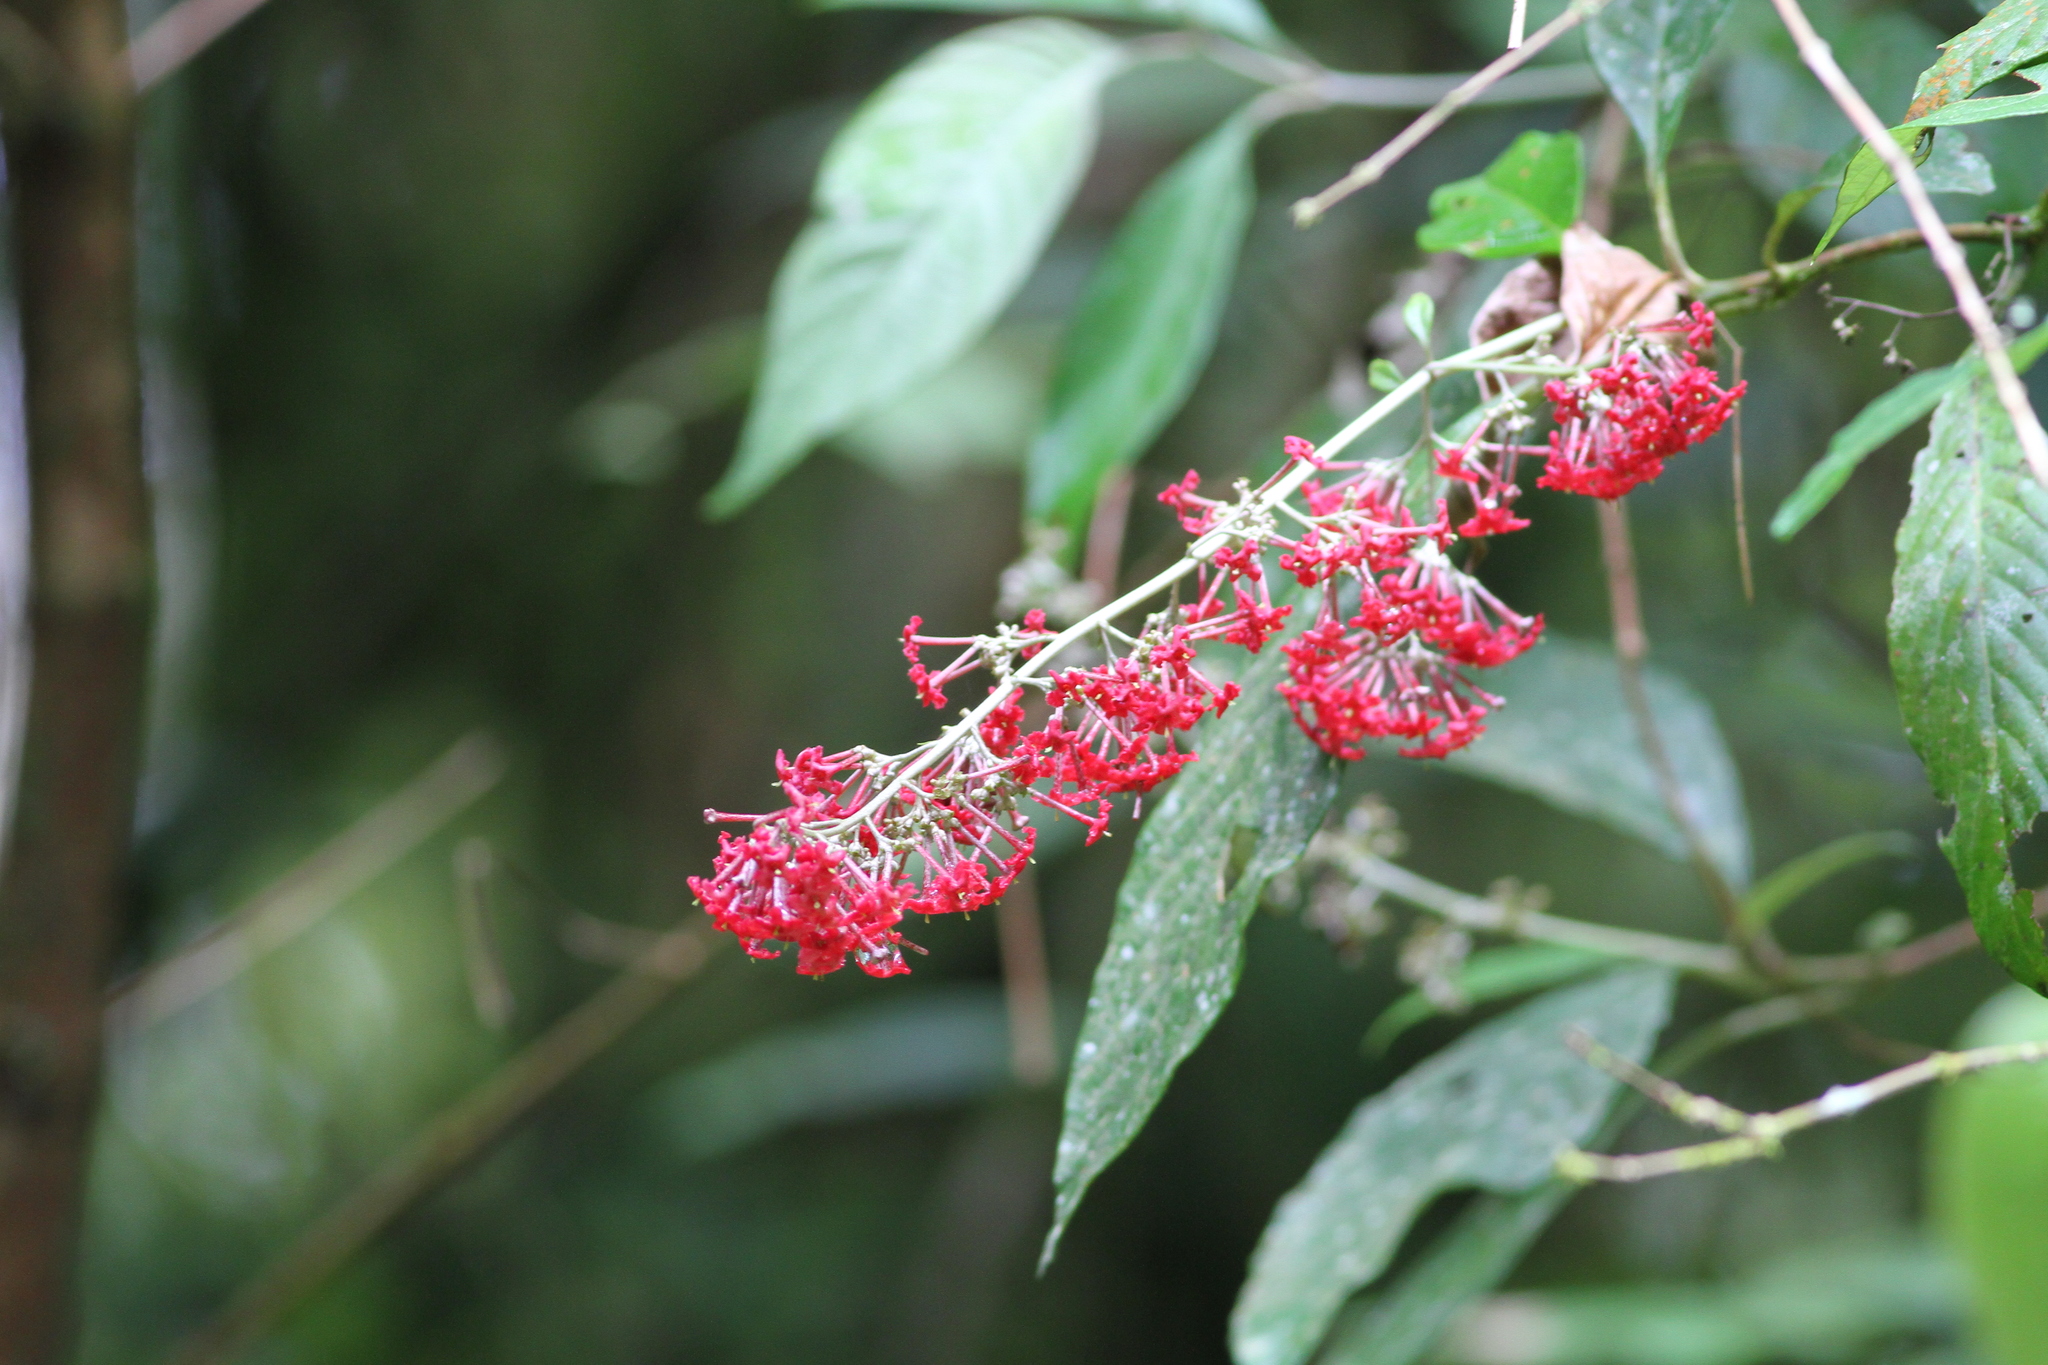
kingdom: Plantae
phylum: Tracheophyta
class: Magnoliopsida
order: Gentianales
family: Rubiaceae
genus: Arachnothryx
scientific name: Arachnothryx pyramidalis
